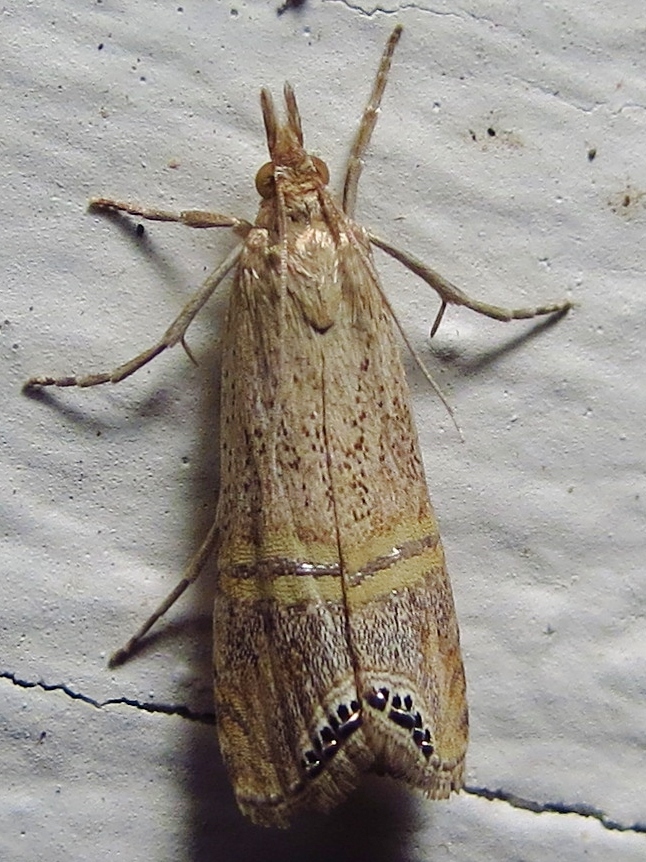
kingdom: Animalia
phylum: Arthropoda
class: Insecta
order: Lepidoptera
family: Crambidae
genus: Euchromius
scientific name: Euchromius ocellea
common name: Necklace veneer moth
